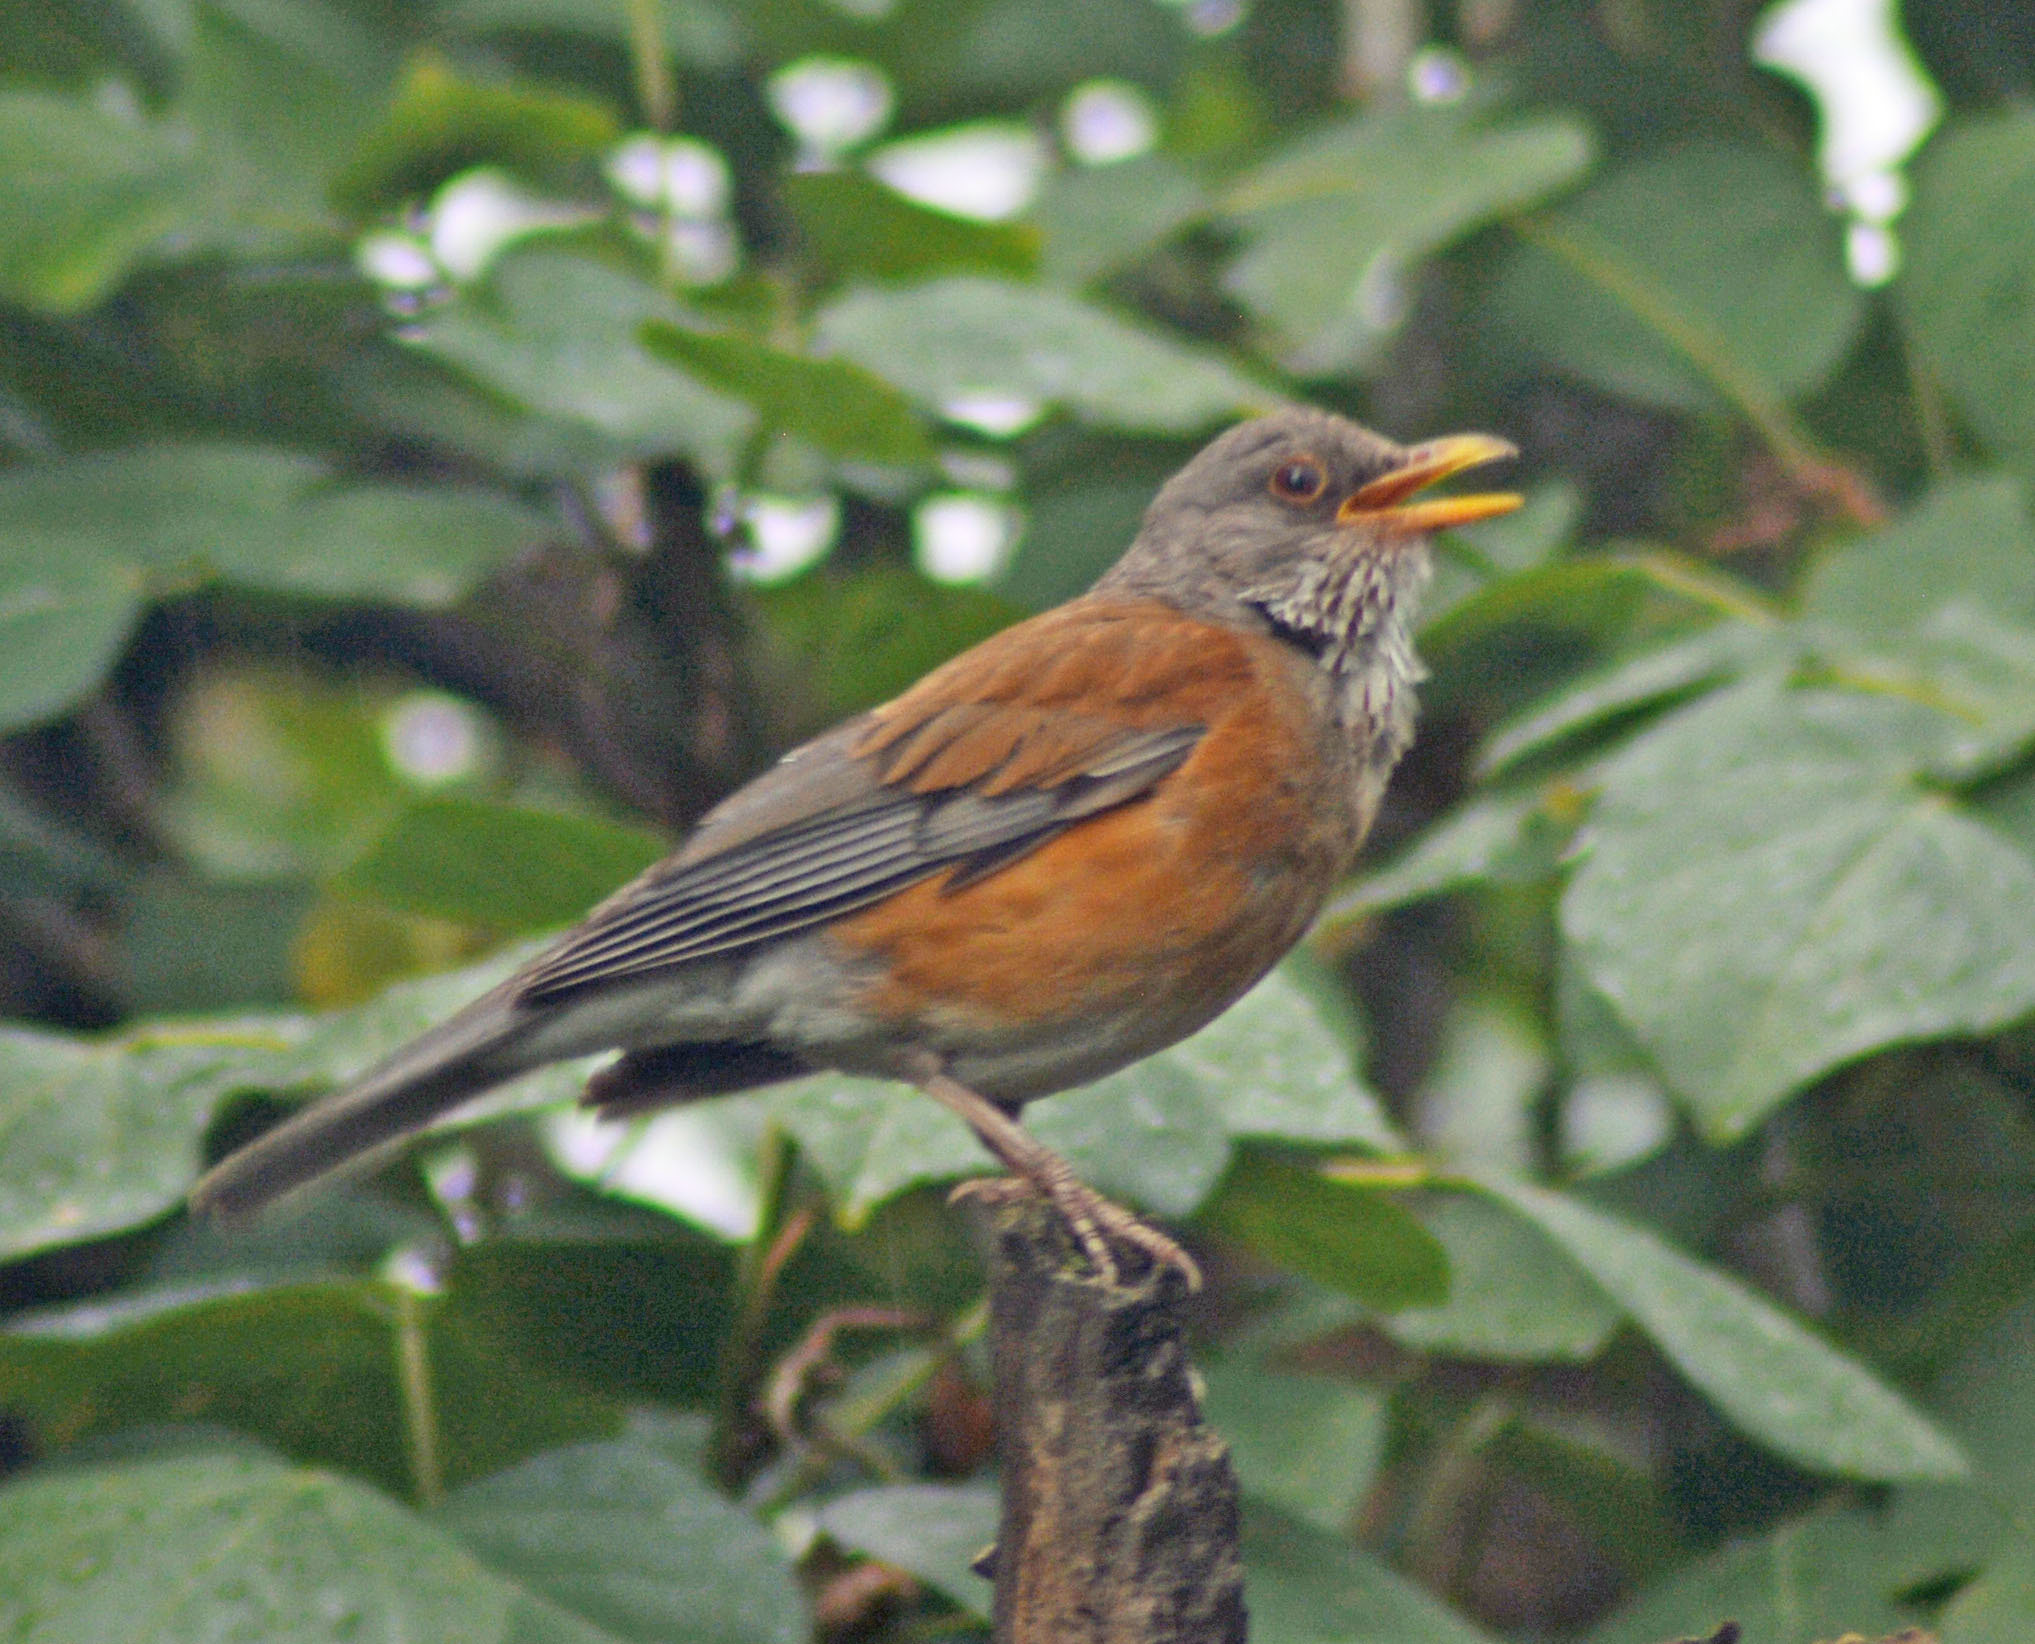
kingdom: Animalia
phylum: Chordata
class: Aves
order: Passeriformes
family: Turdidae
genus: Turdus
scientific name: Turdus rufopalliatus
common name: Rufous-backed robin
